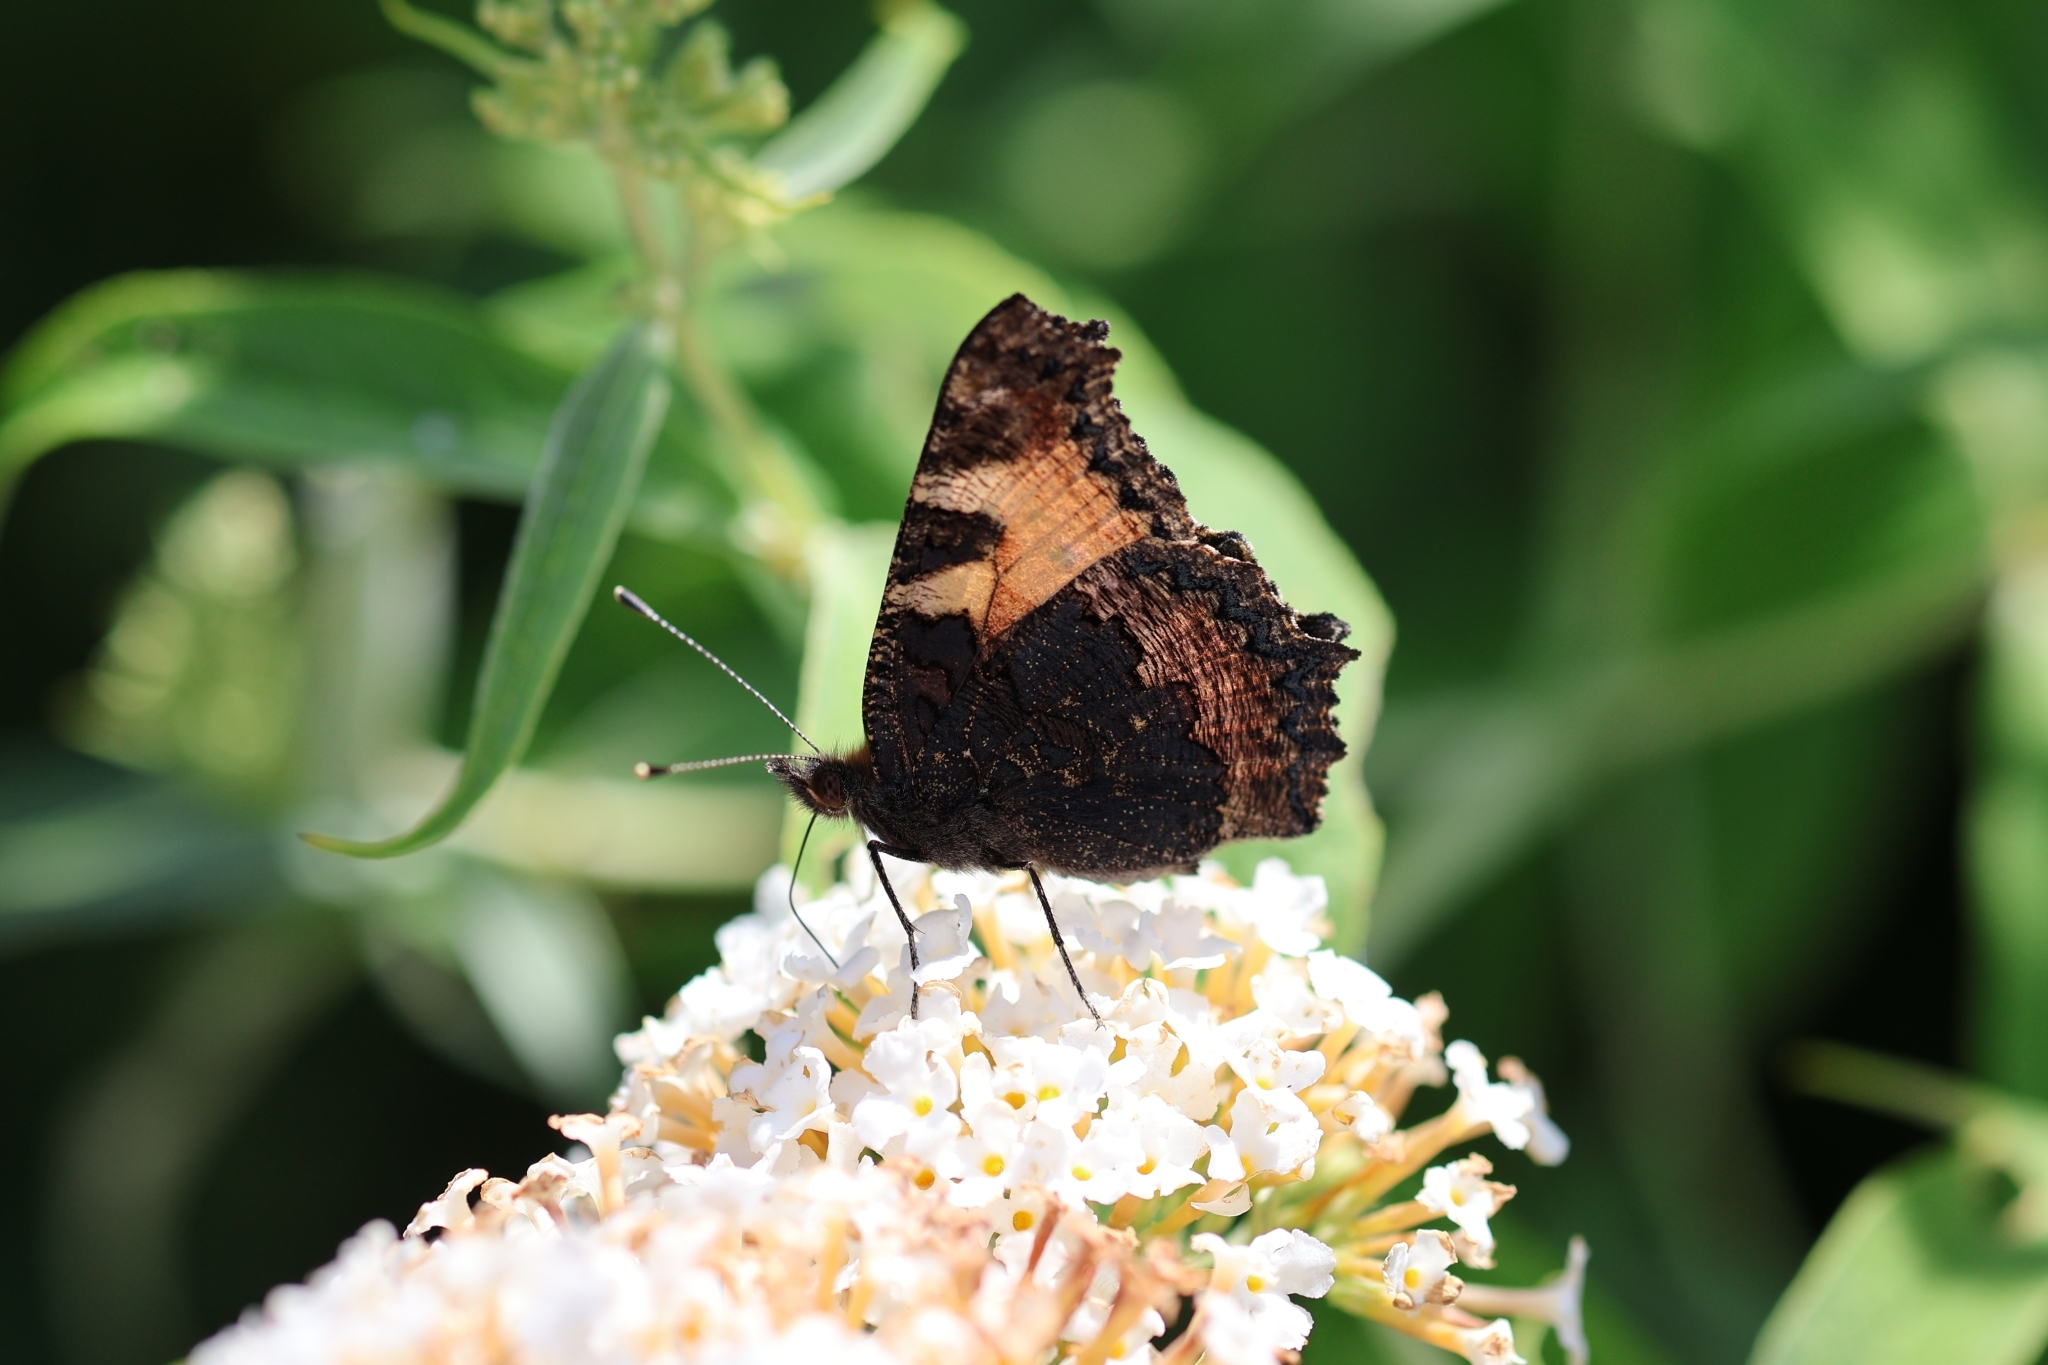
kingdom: Animalia
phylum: Arthropoda
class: Insecta
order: Lepidoptera
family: Nymphalidae
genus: Aglais
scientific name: Aglais urticae
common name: Small tortoiseshell
